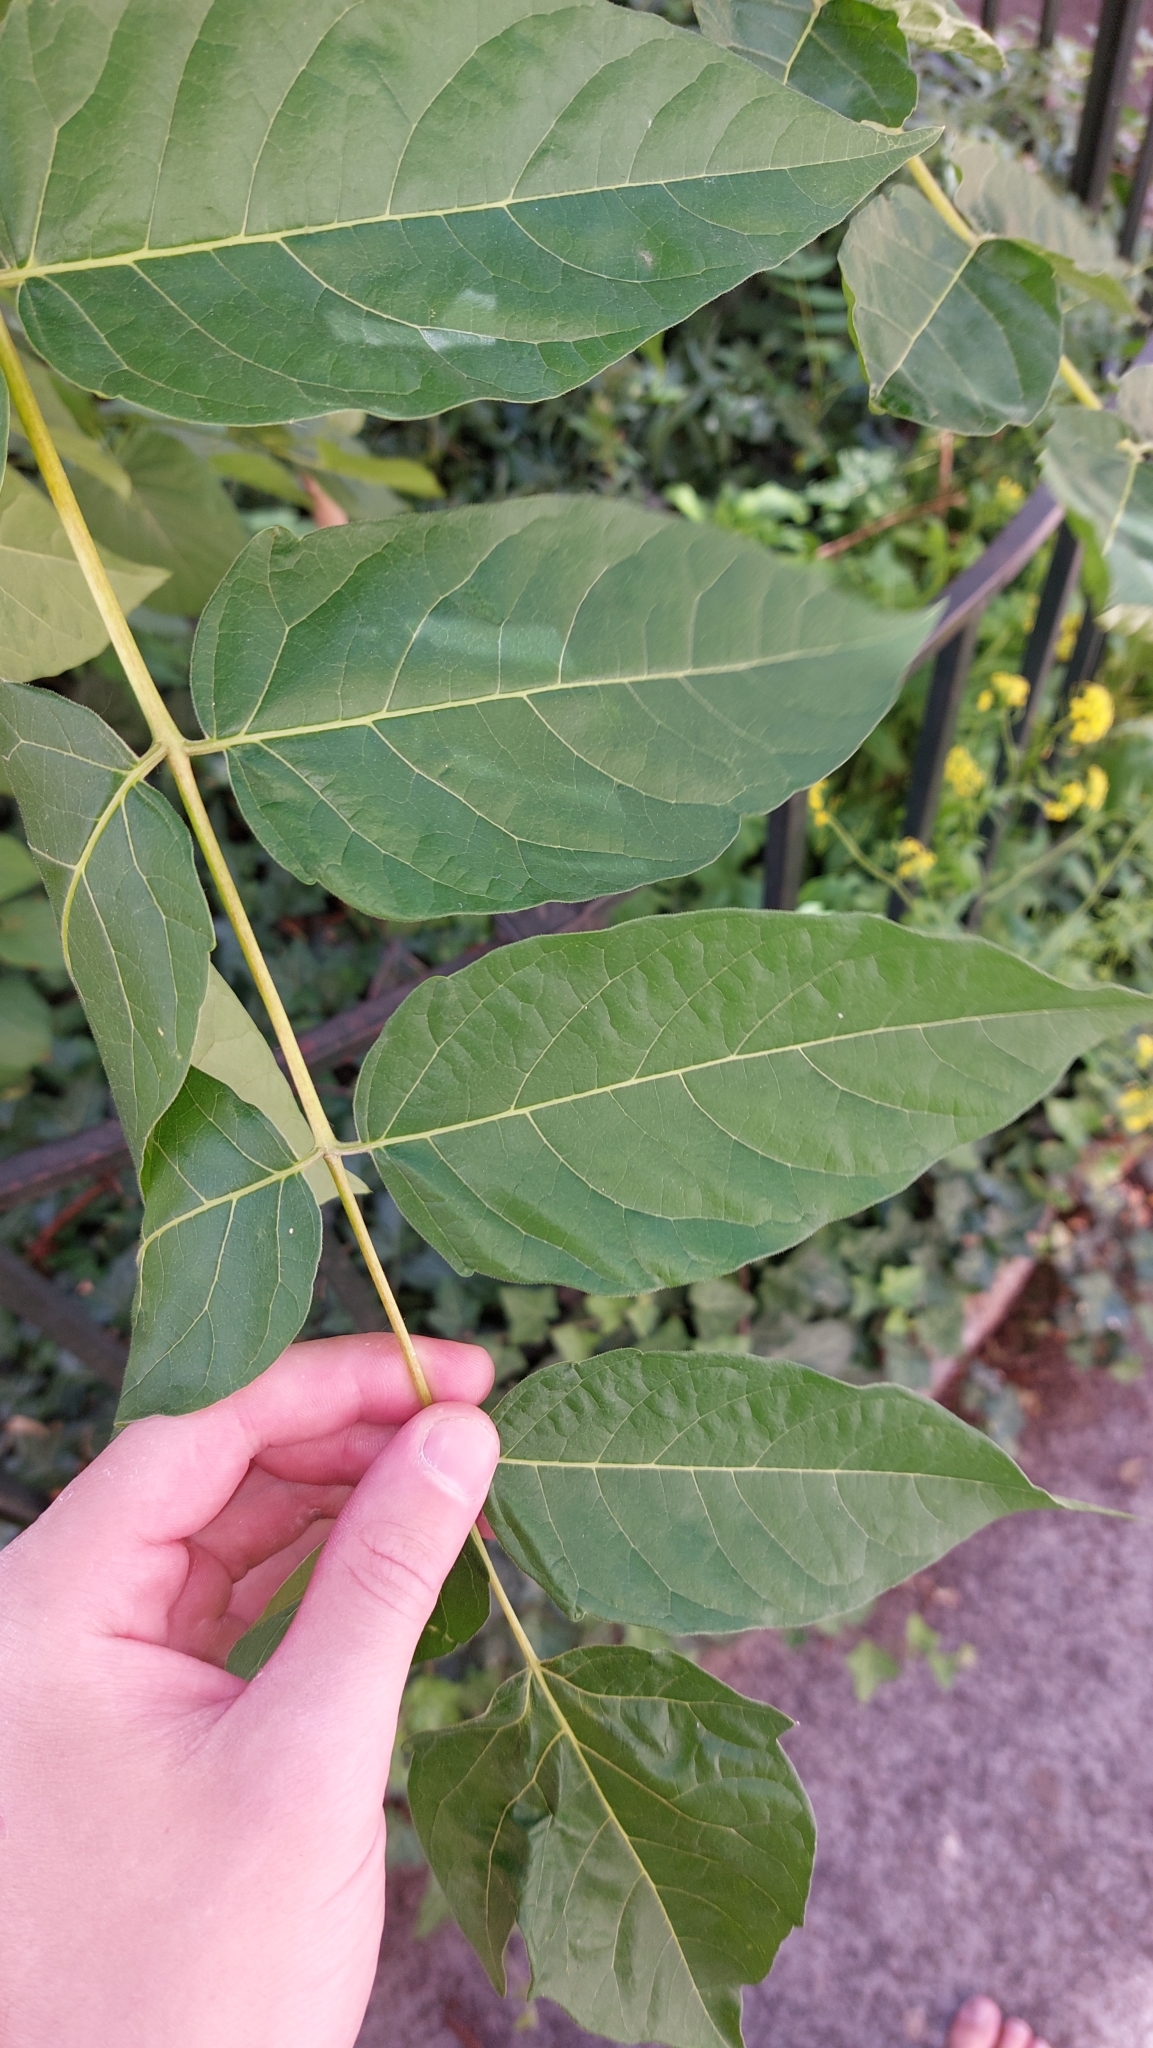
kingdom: Plantae
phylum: Tracheophyta
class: Magnoliopsida
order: Sapindales
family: Simaroubaceae
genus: Ailanthus
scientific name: Ailanthus altissima
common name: Tree-of-heaven
